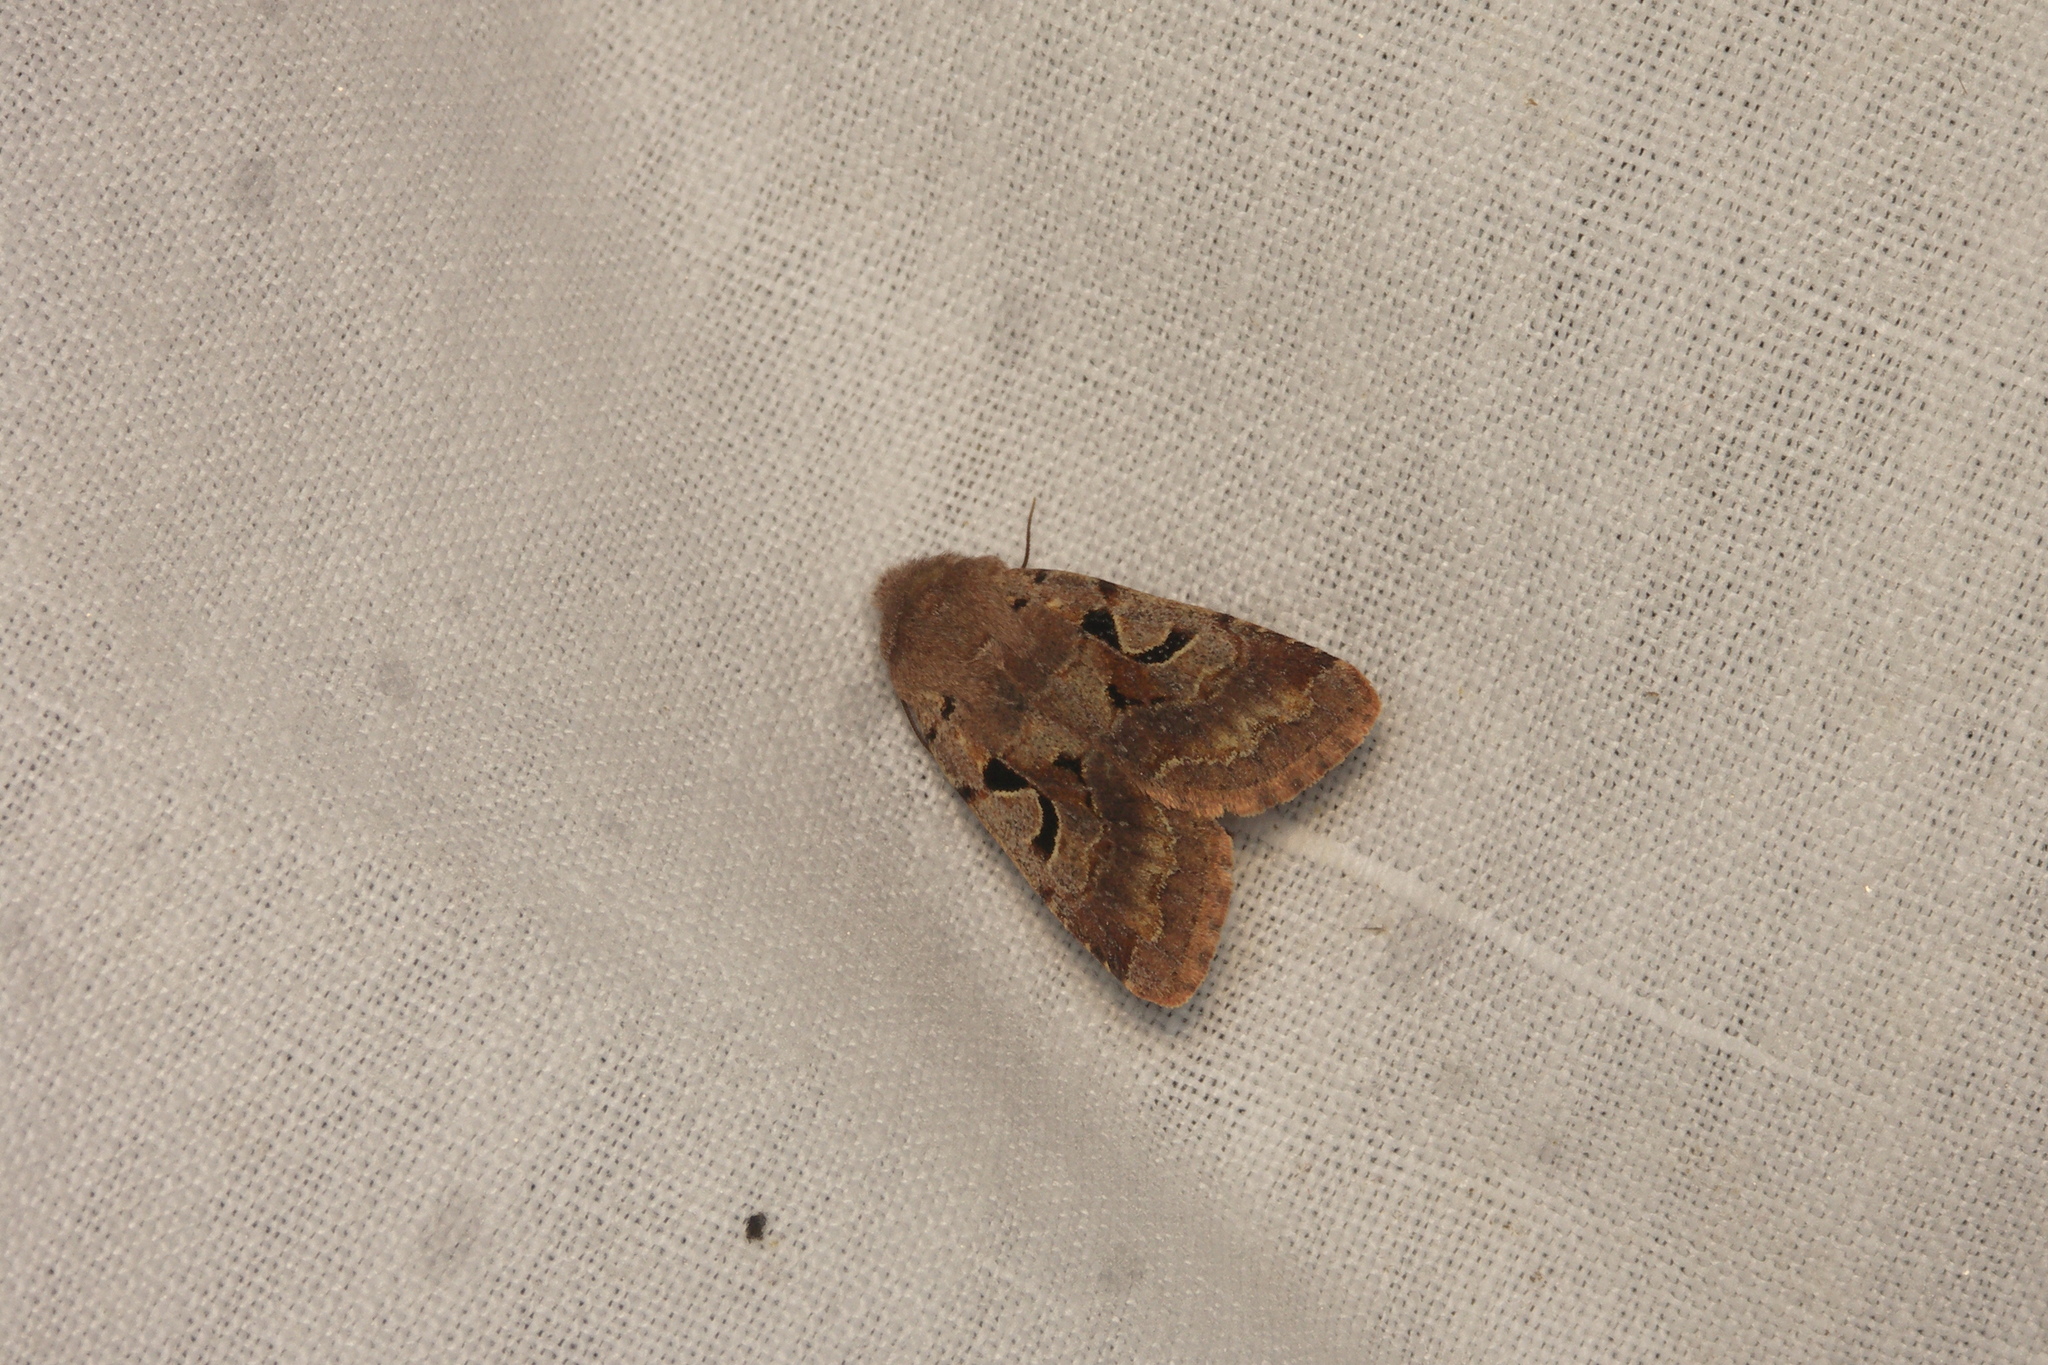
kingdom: Animalia
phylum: Arthropoda
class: Insecta
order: Lepidoptera
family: Noctuidae
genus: Orthosia
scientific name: Orthosia gothica
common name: Hebrew character
